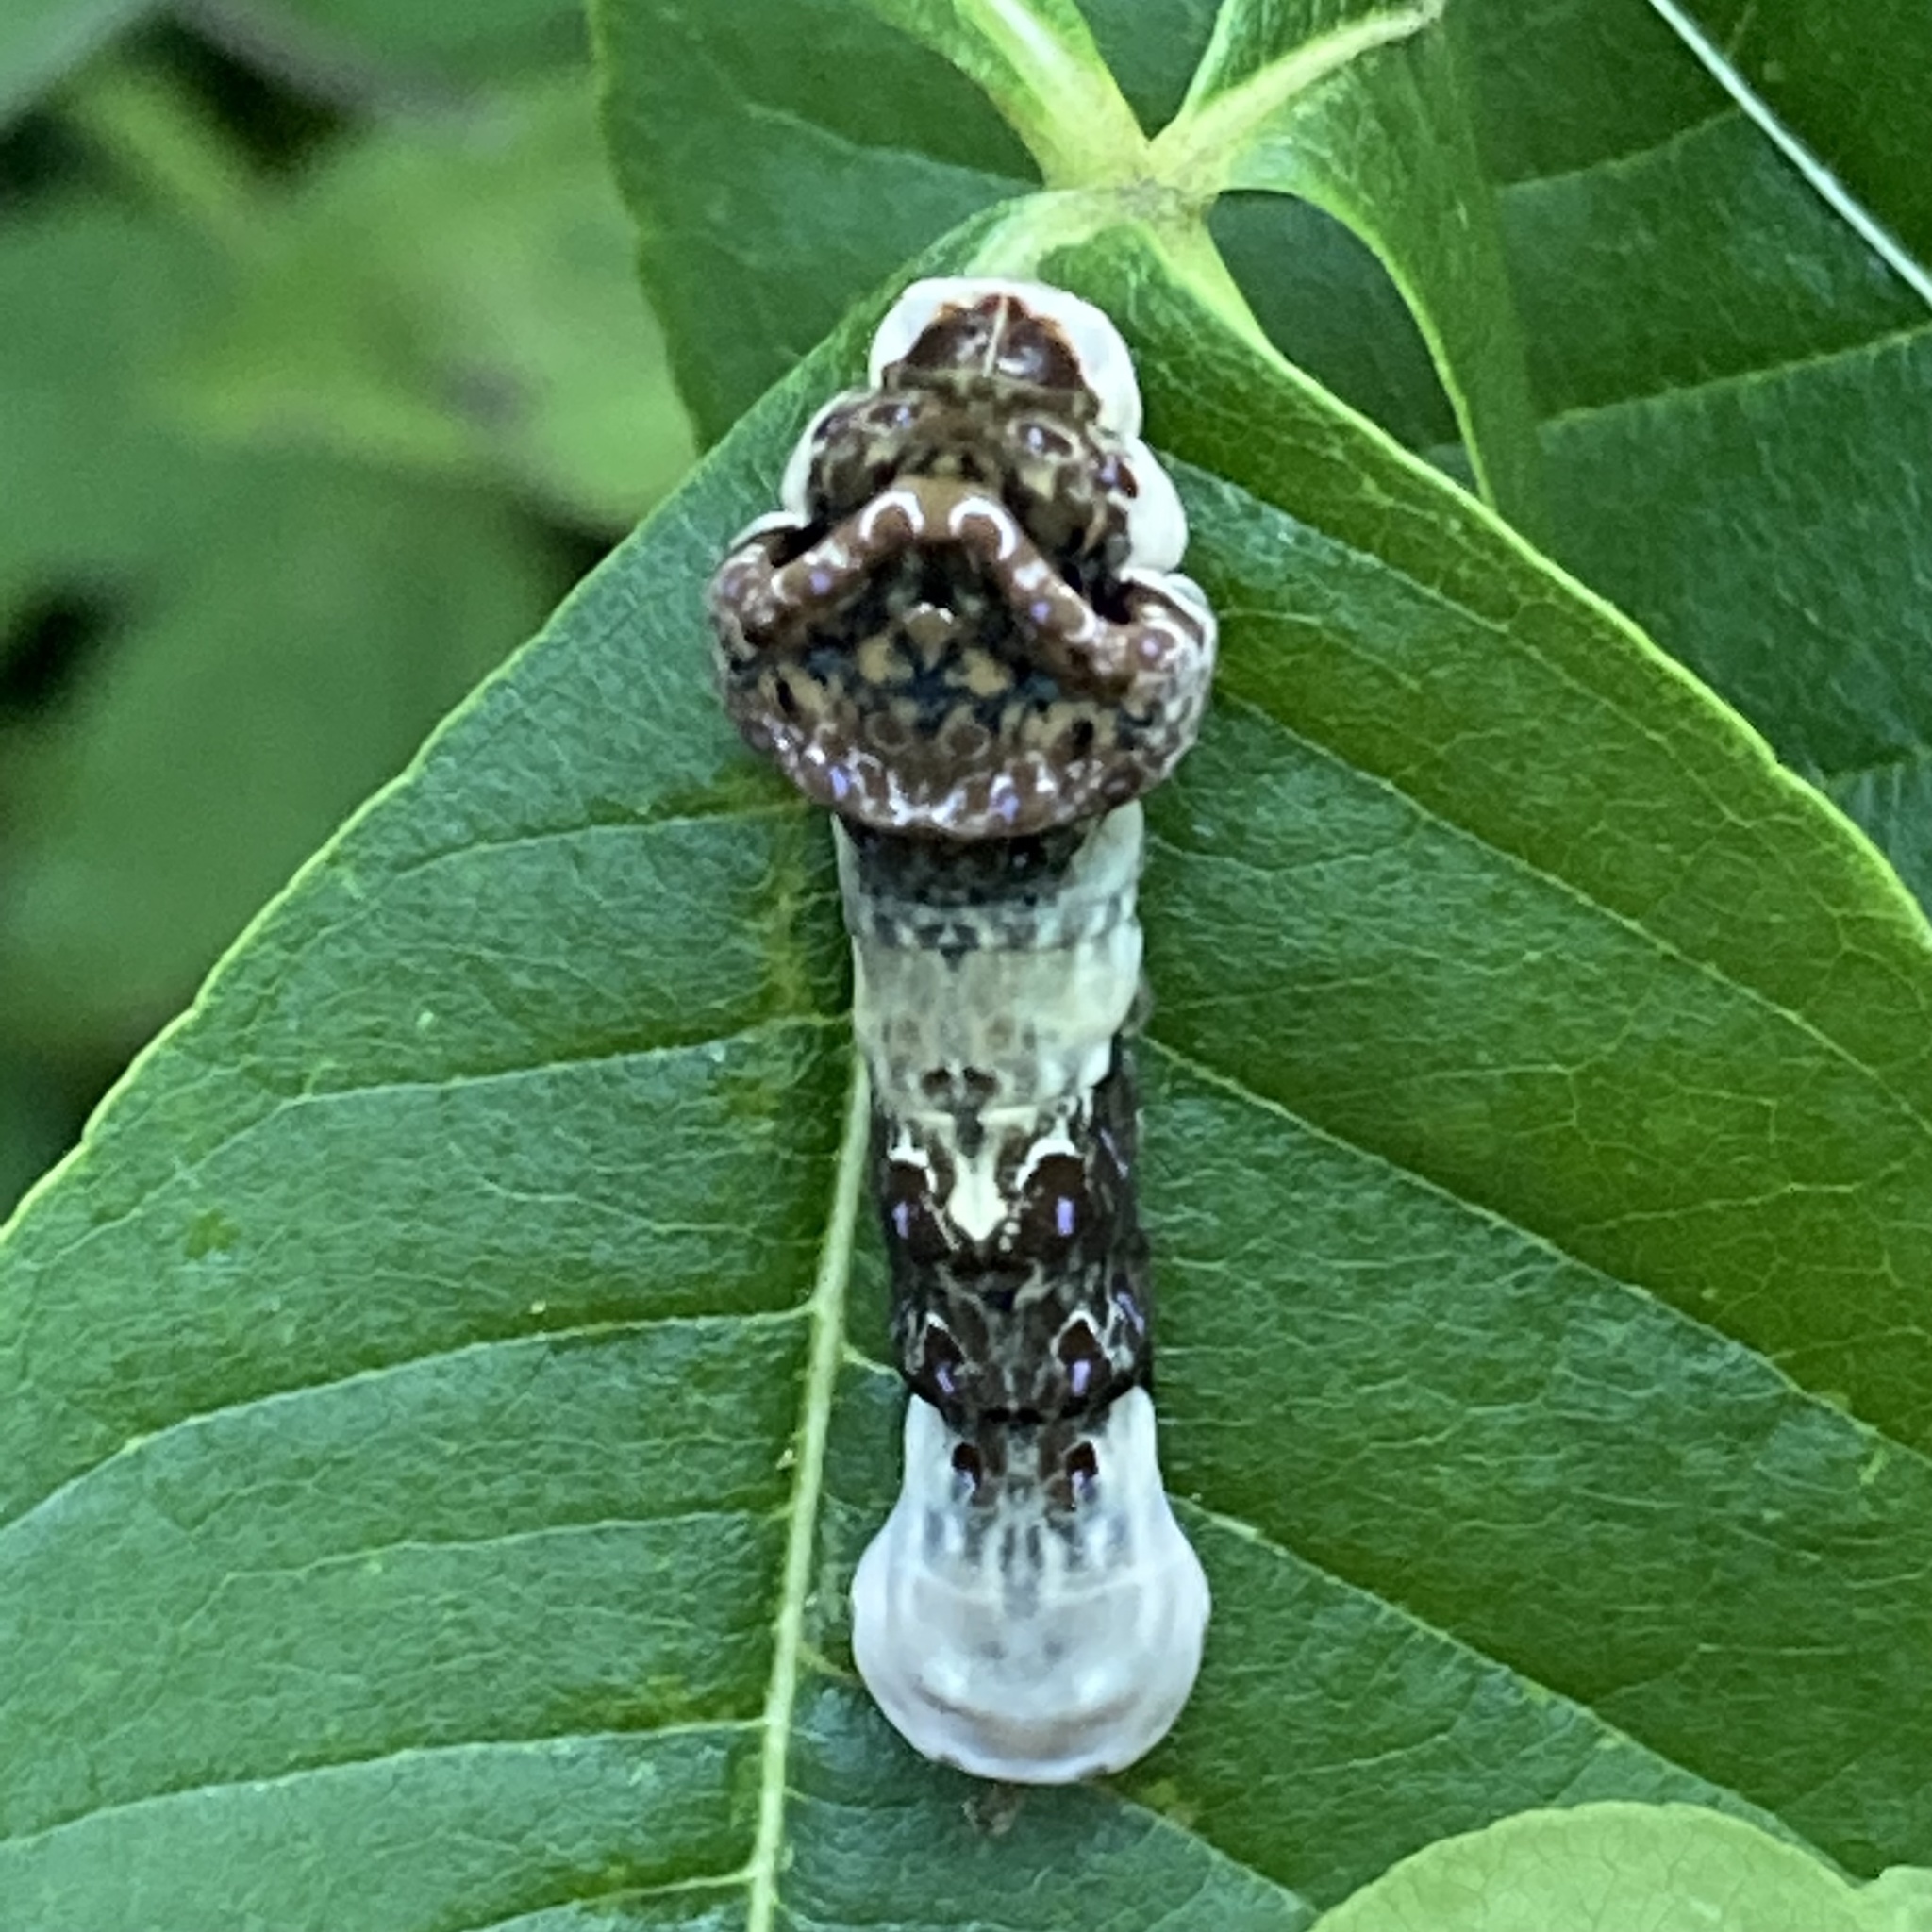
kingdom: Animalia
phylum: Arthropoda
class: Insecta
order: Lepidoptera
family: Papilionidae
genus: Papilio
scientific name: Papilio cresphontes
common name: Giant swallowtail
